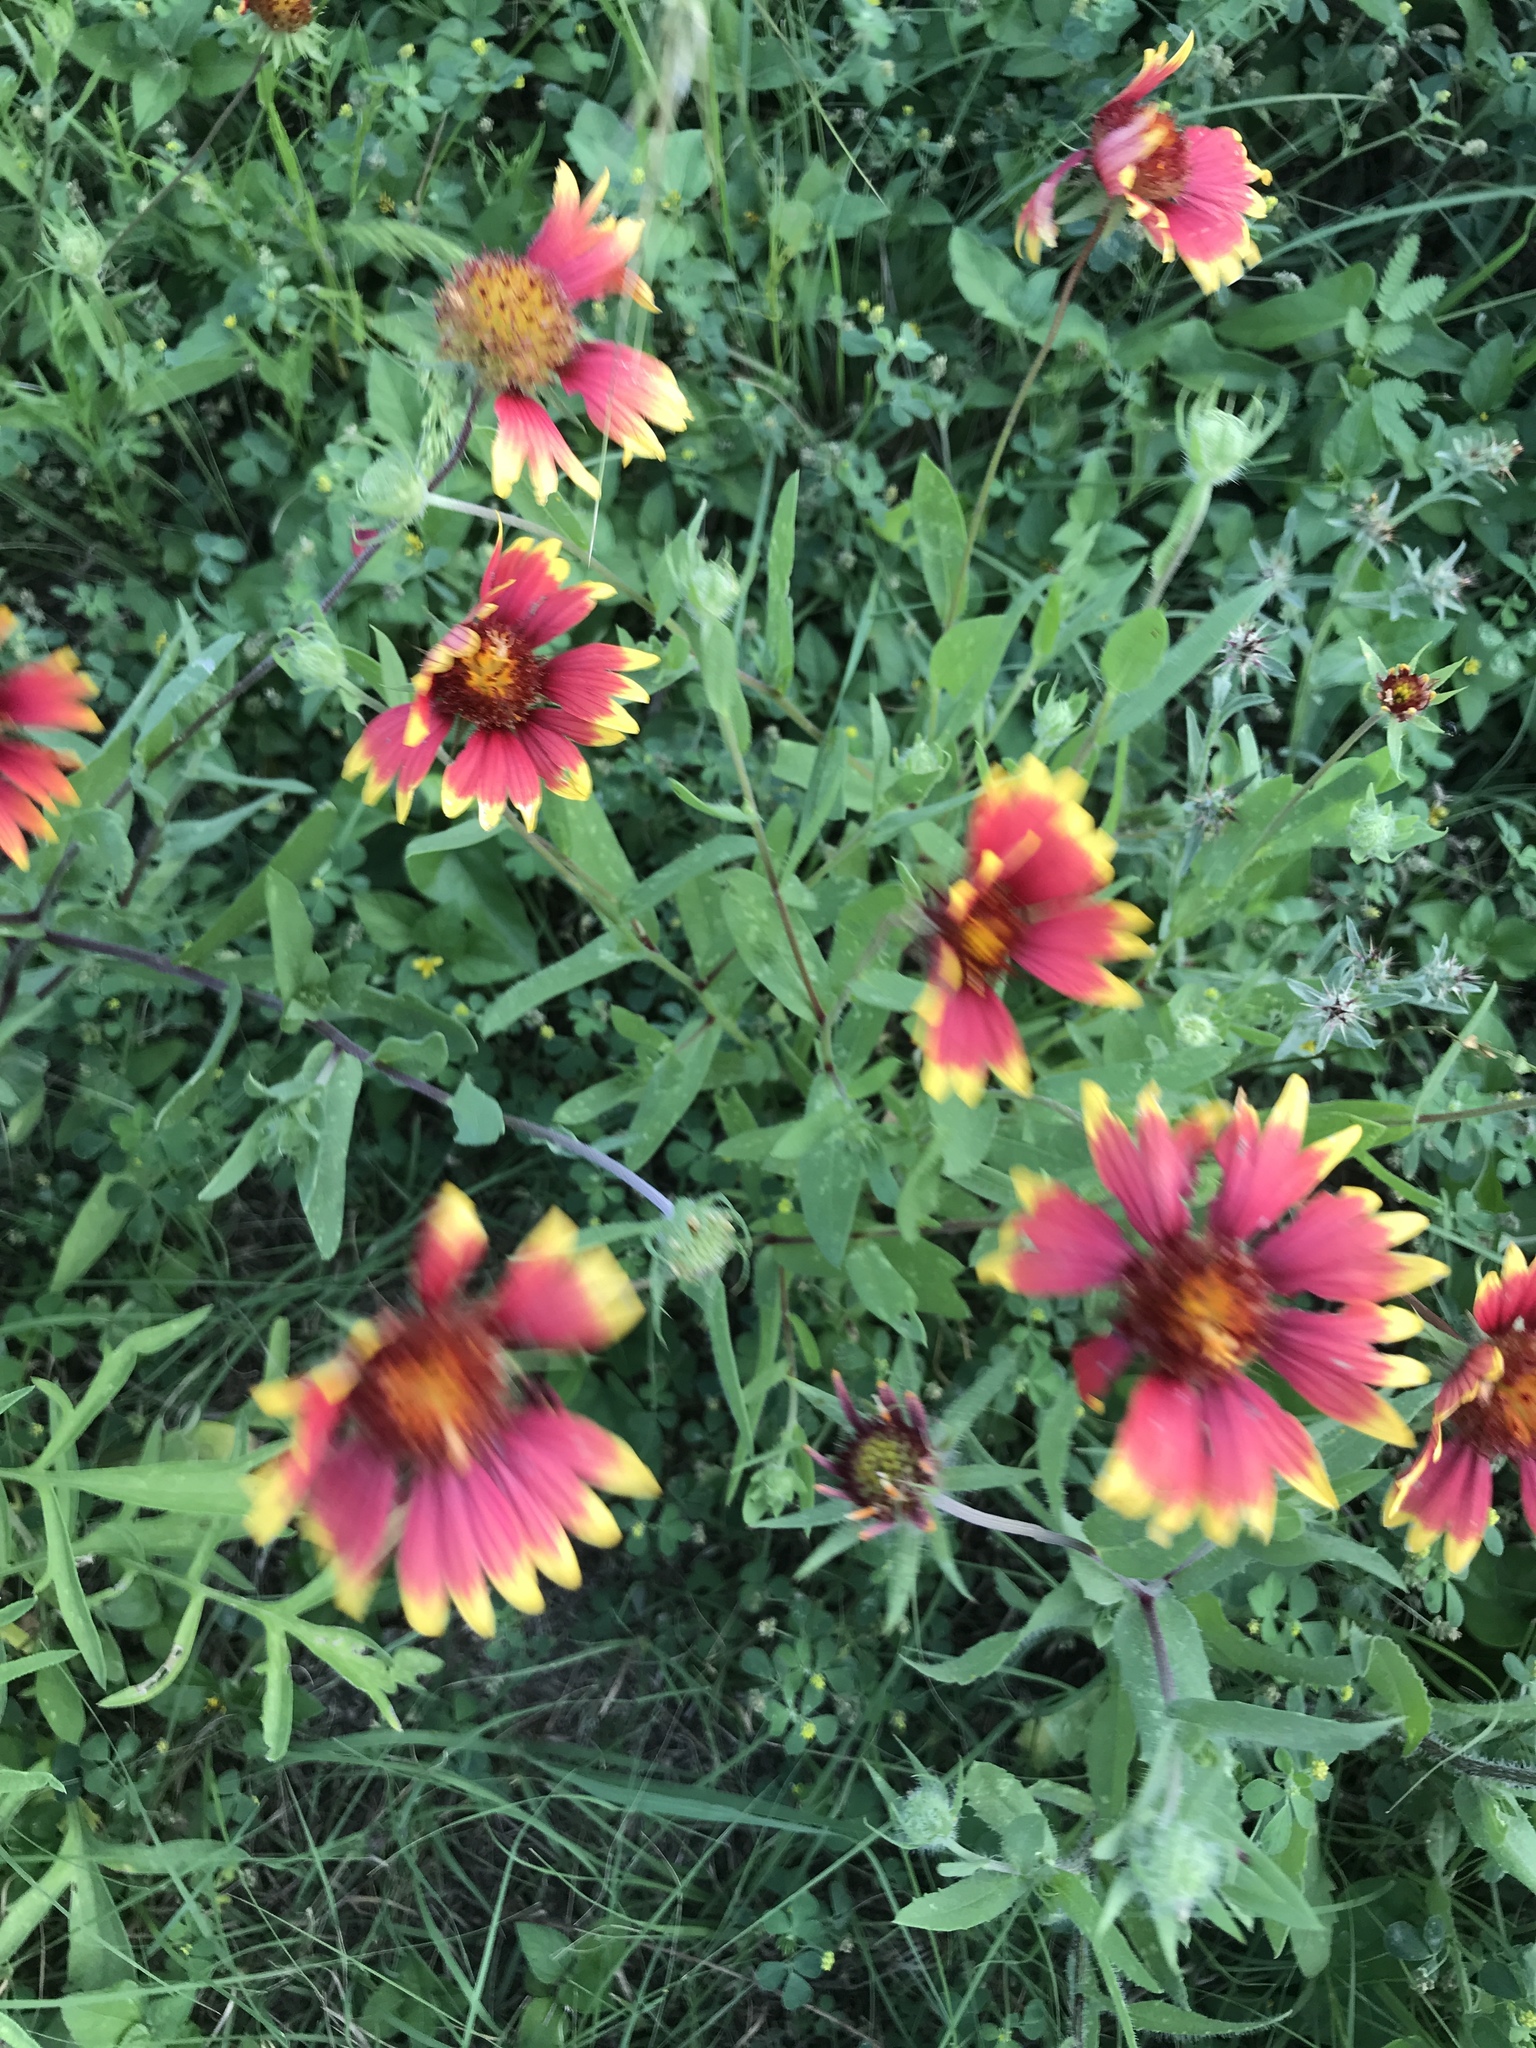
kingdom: Plantae
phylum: Tracheophyta
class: Magnoliopsida
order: Asterales
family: Asteraceae
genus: Gaillardia
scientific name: Gaillardia pulchella
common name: Firewheel
